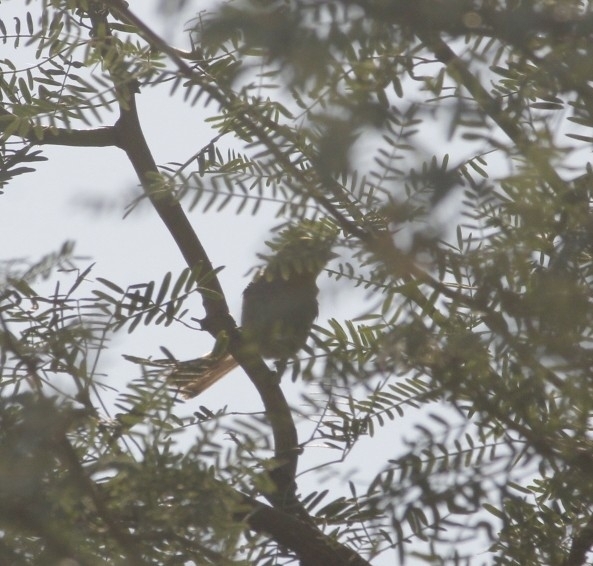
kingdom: Animalia
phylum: Chordata
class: Aves
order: Passeriformes
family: Remizidae
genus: Auriparus
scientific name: Auriparus flaviceps
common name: Verdin
